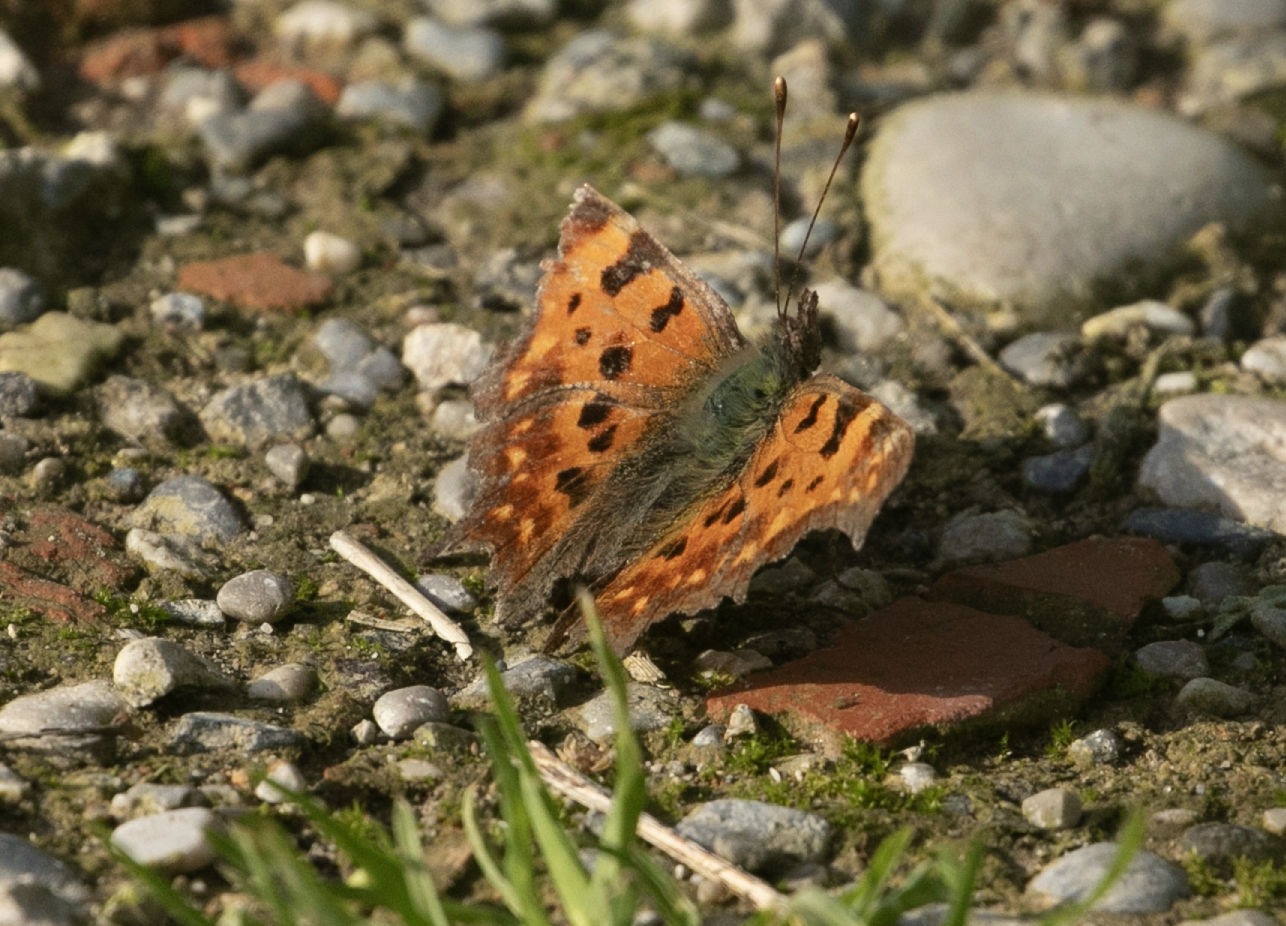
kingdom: Animalia
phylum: Arthropoda
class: Insecta
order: Lepidoptera
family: Nymphalidae
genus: Polygonia
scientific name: Polygonia c-album
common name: Comma
